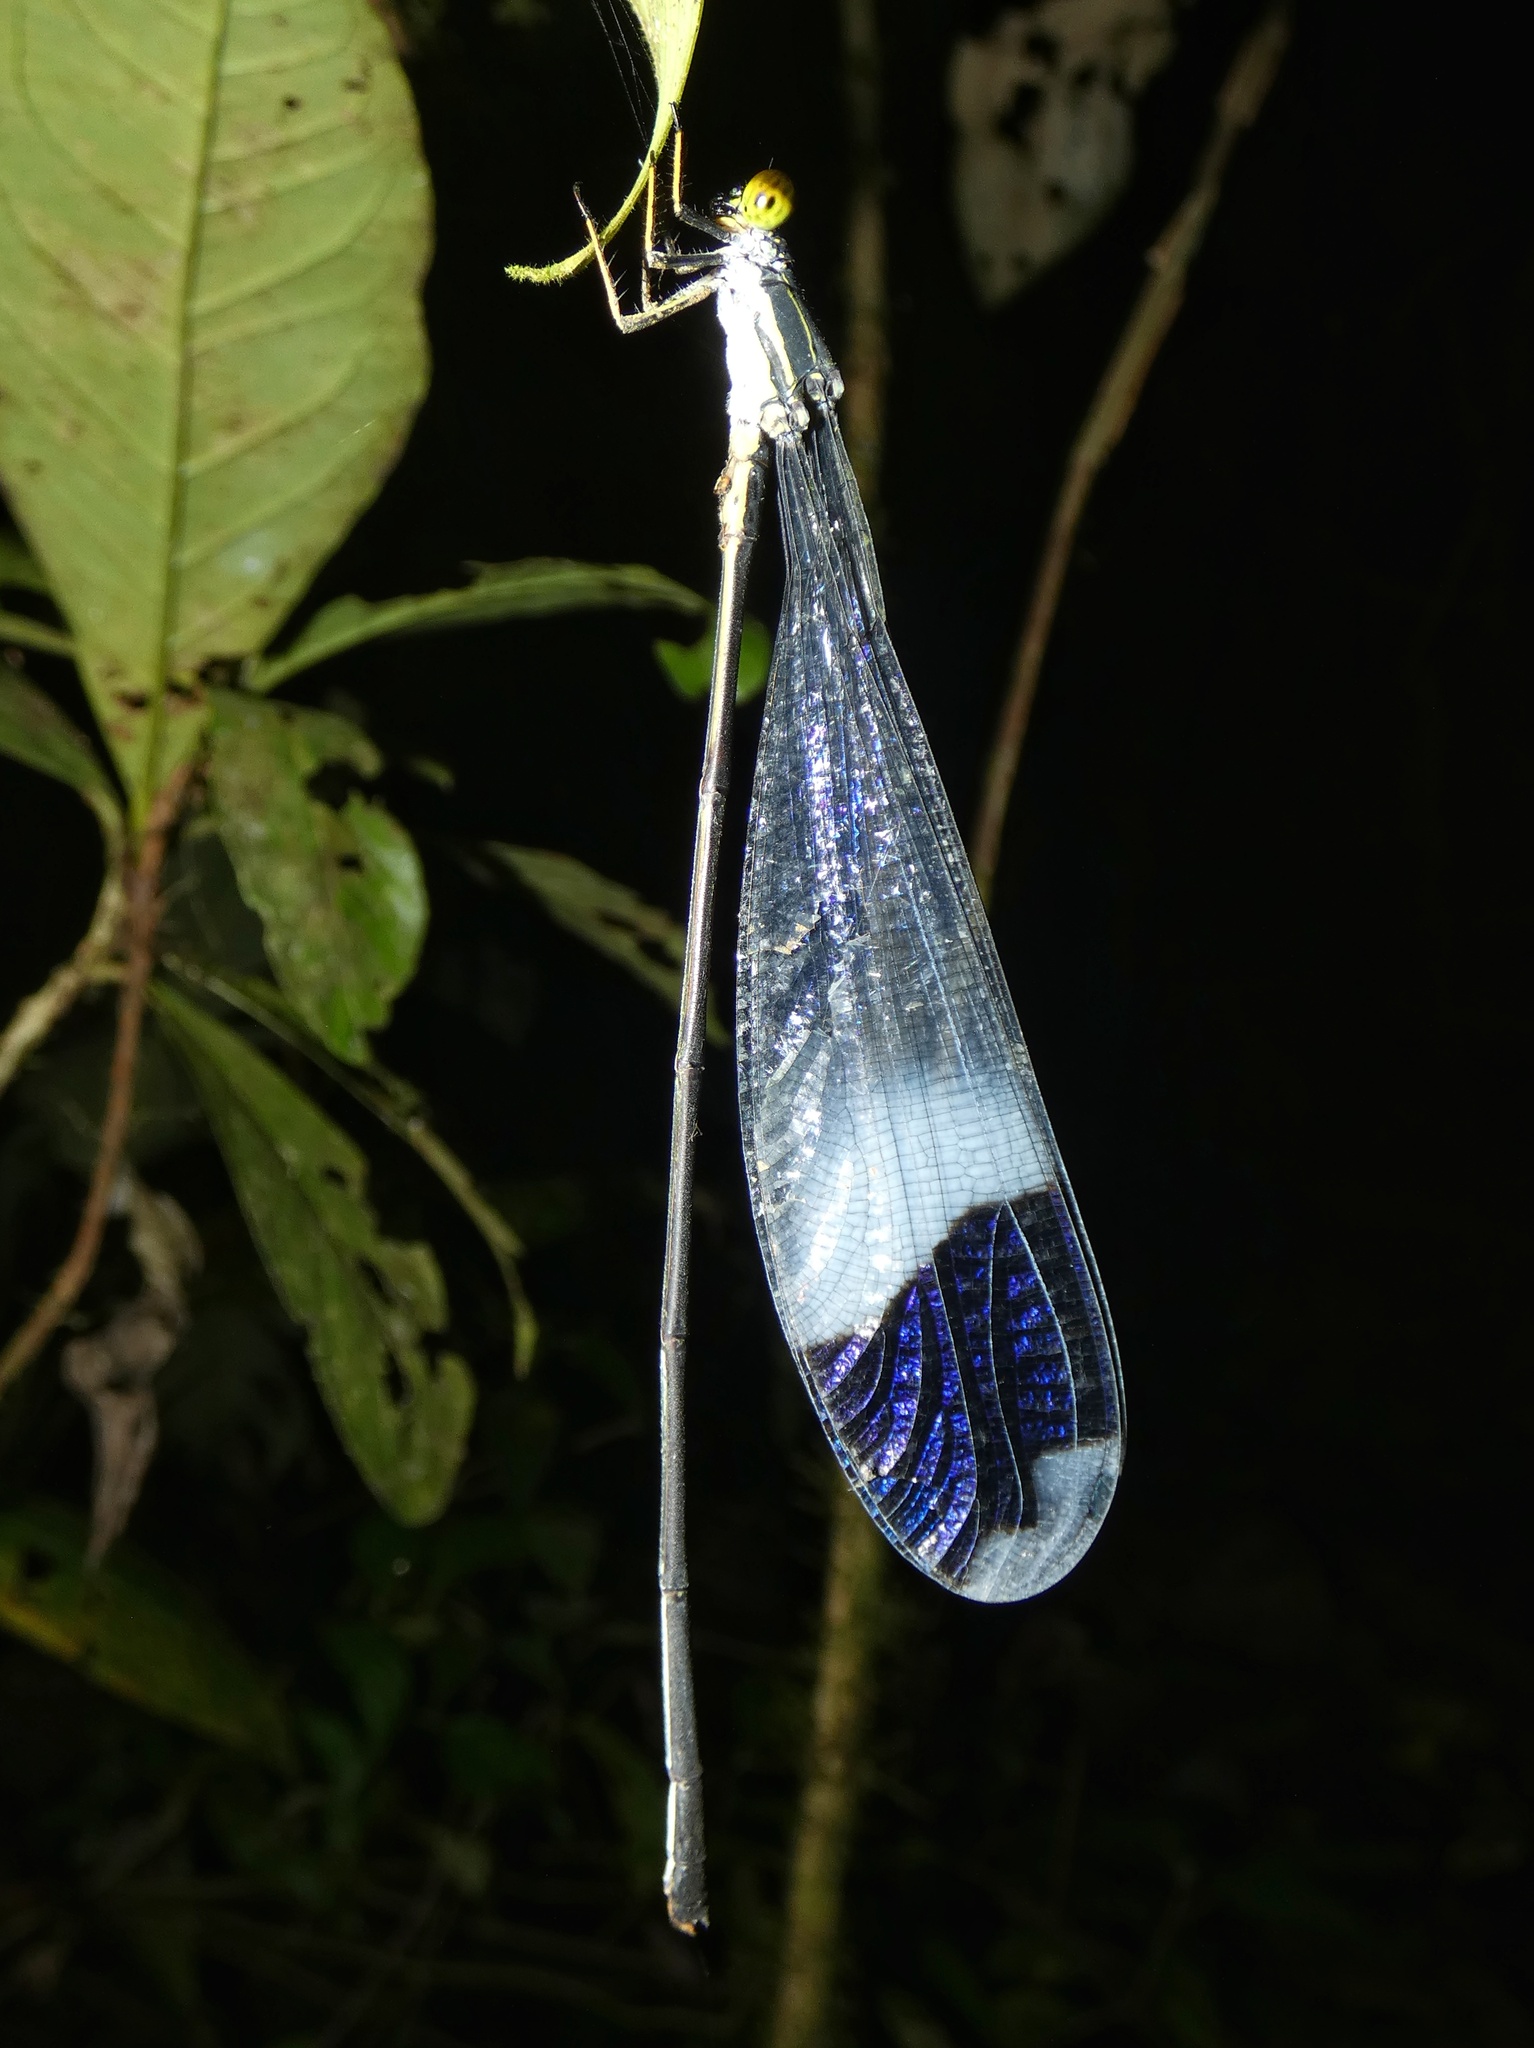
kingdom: Animalia
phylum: Arthropoda
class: Insecta
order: Odonata
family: Coenagrionidae
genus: Megaloprepus
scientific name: Megaloprepus caerulatus
